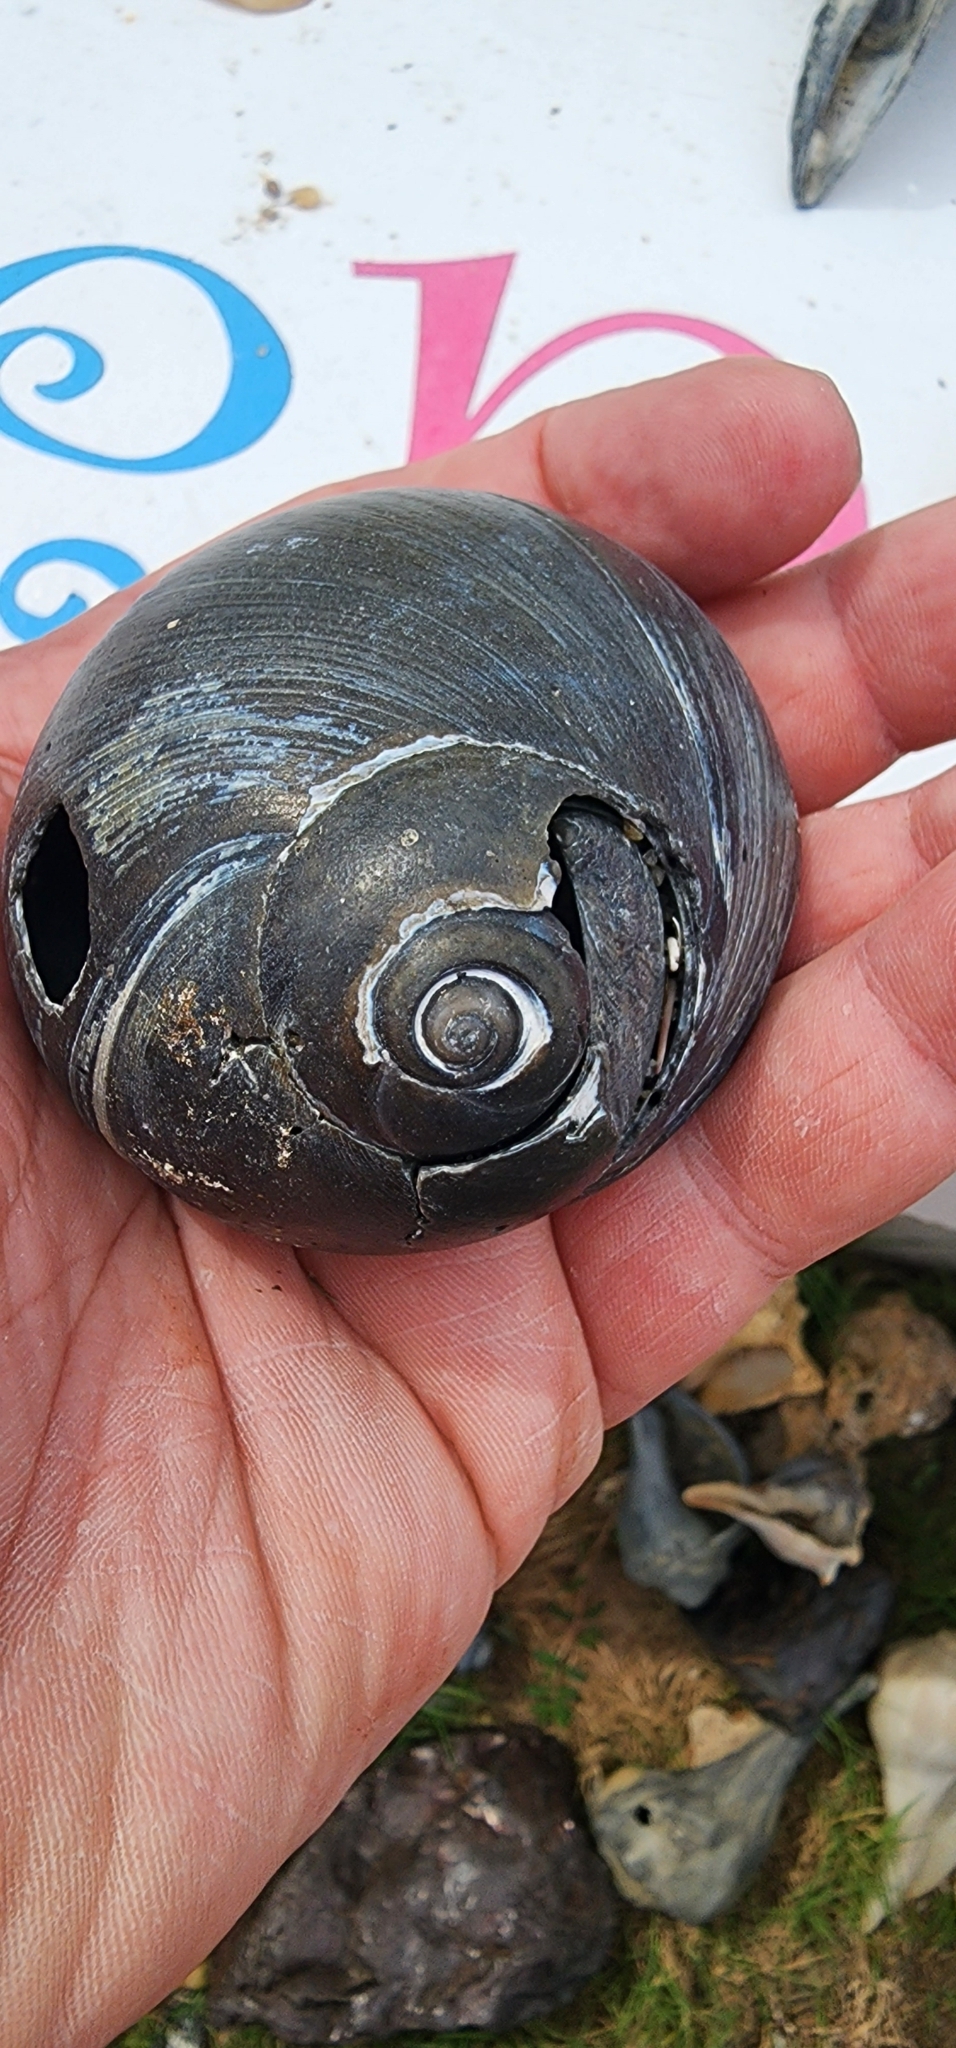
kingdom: Animalia
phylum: Mollusca
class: Gastropoda
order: Littorinimorpha
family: Naticidae
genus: Neverita
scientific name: Neverita duplicata
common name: Lobed moonsnail
